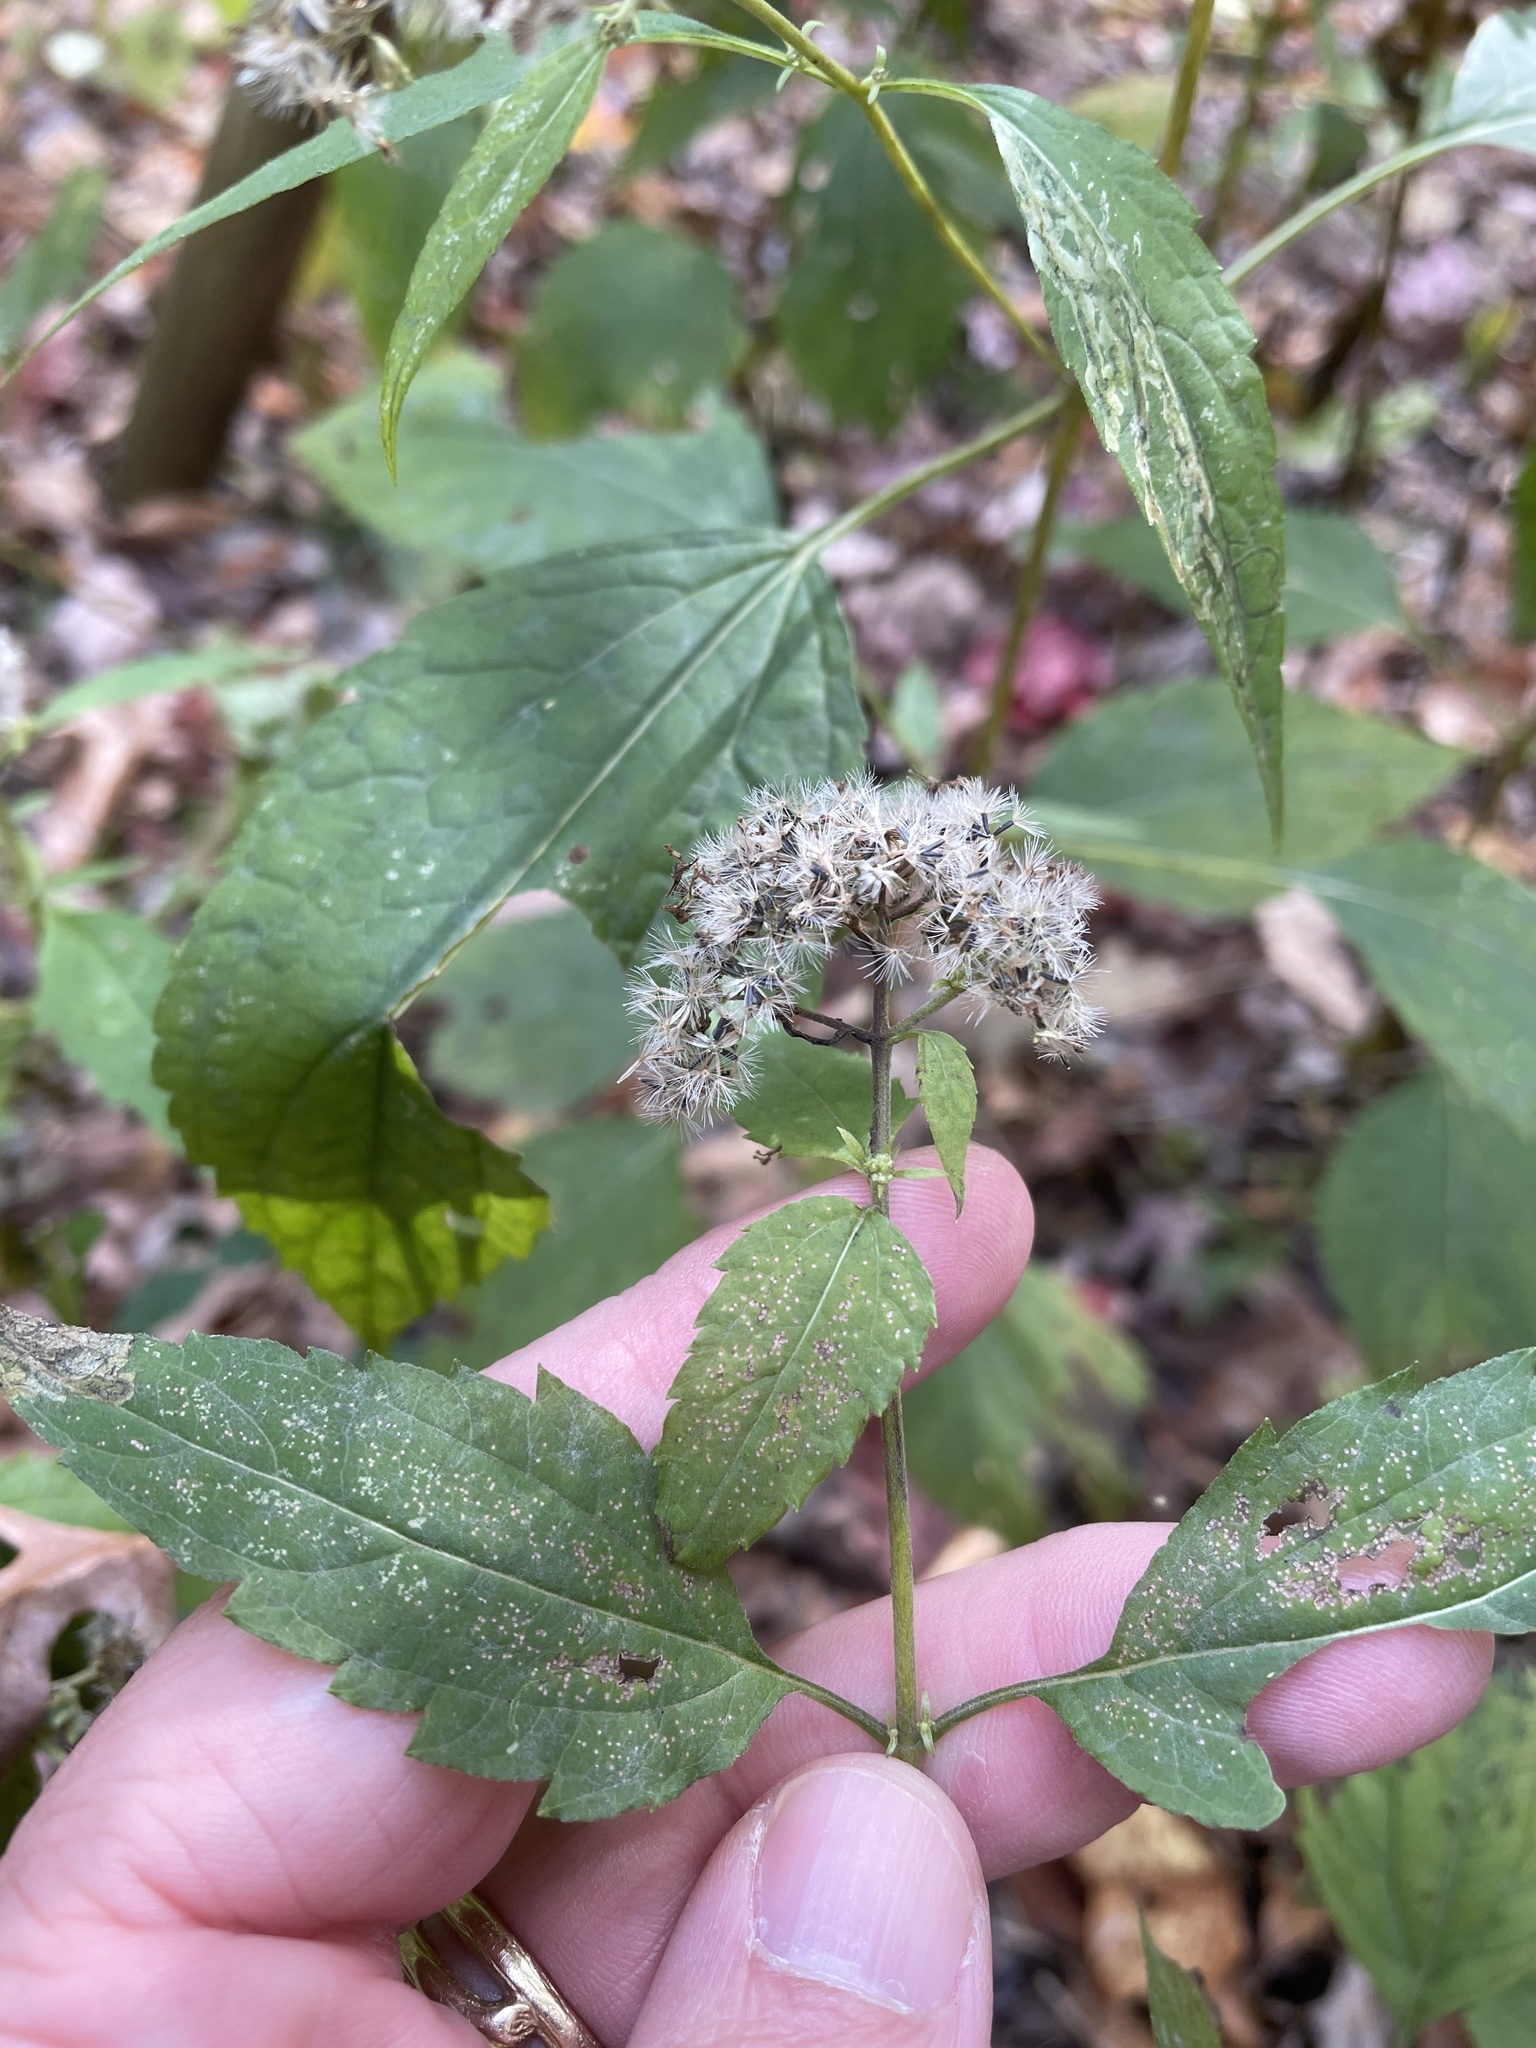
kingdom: Plantae
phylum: Tracheophyta
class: Magnoliopsida
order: Asterales
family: Asteraceae
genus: Ageratina
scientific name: Ageratina altissima
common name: White snakeroot
